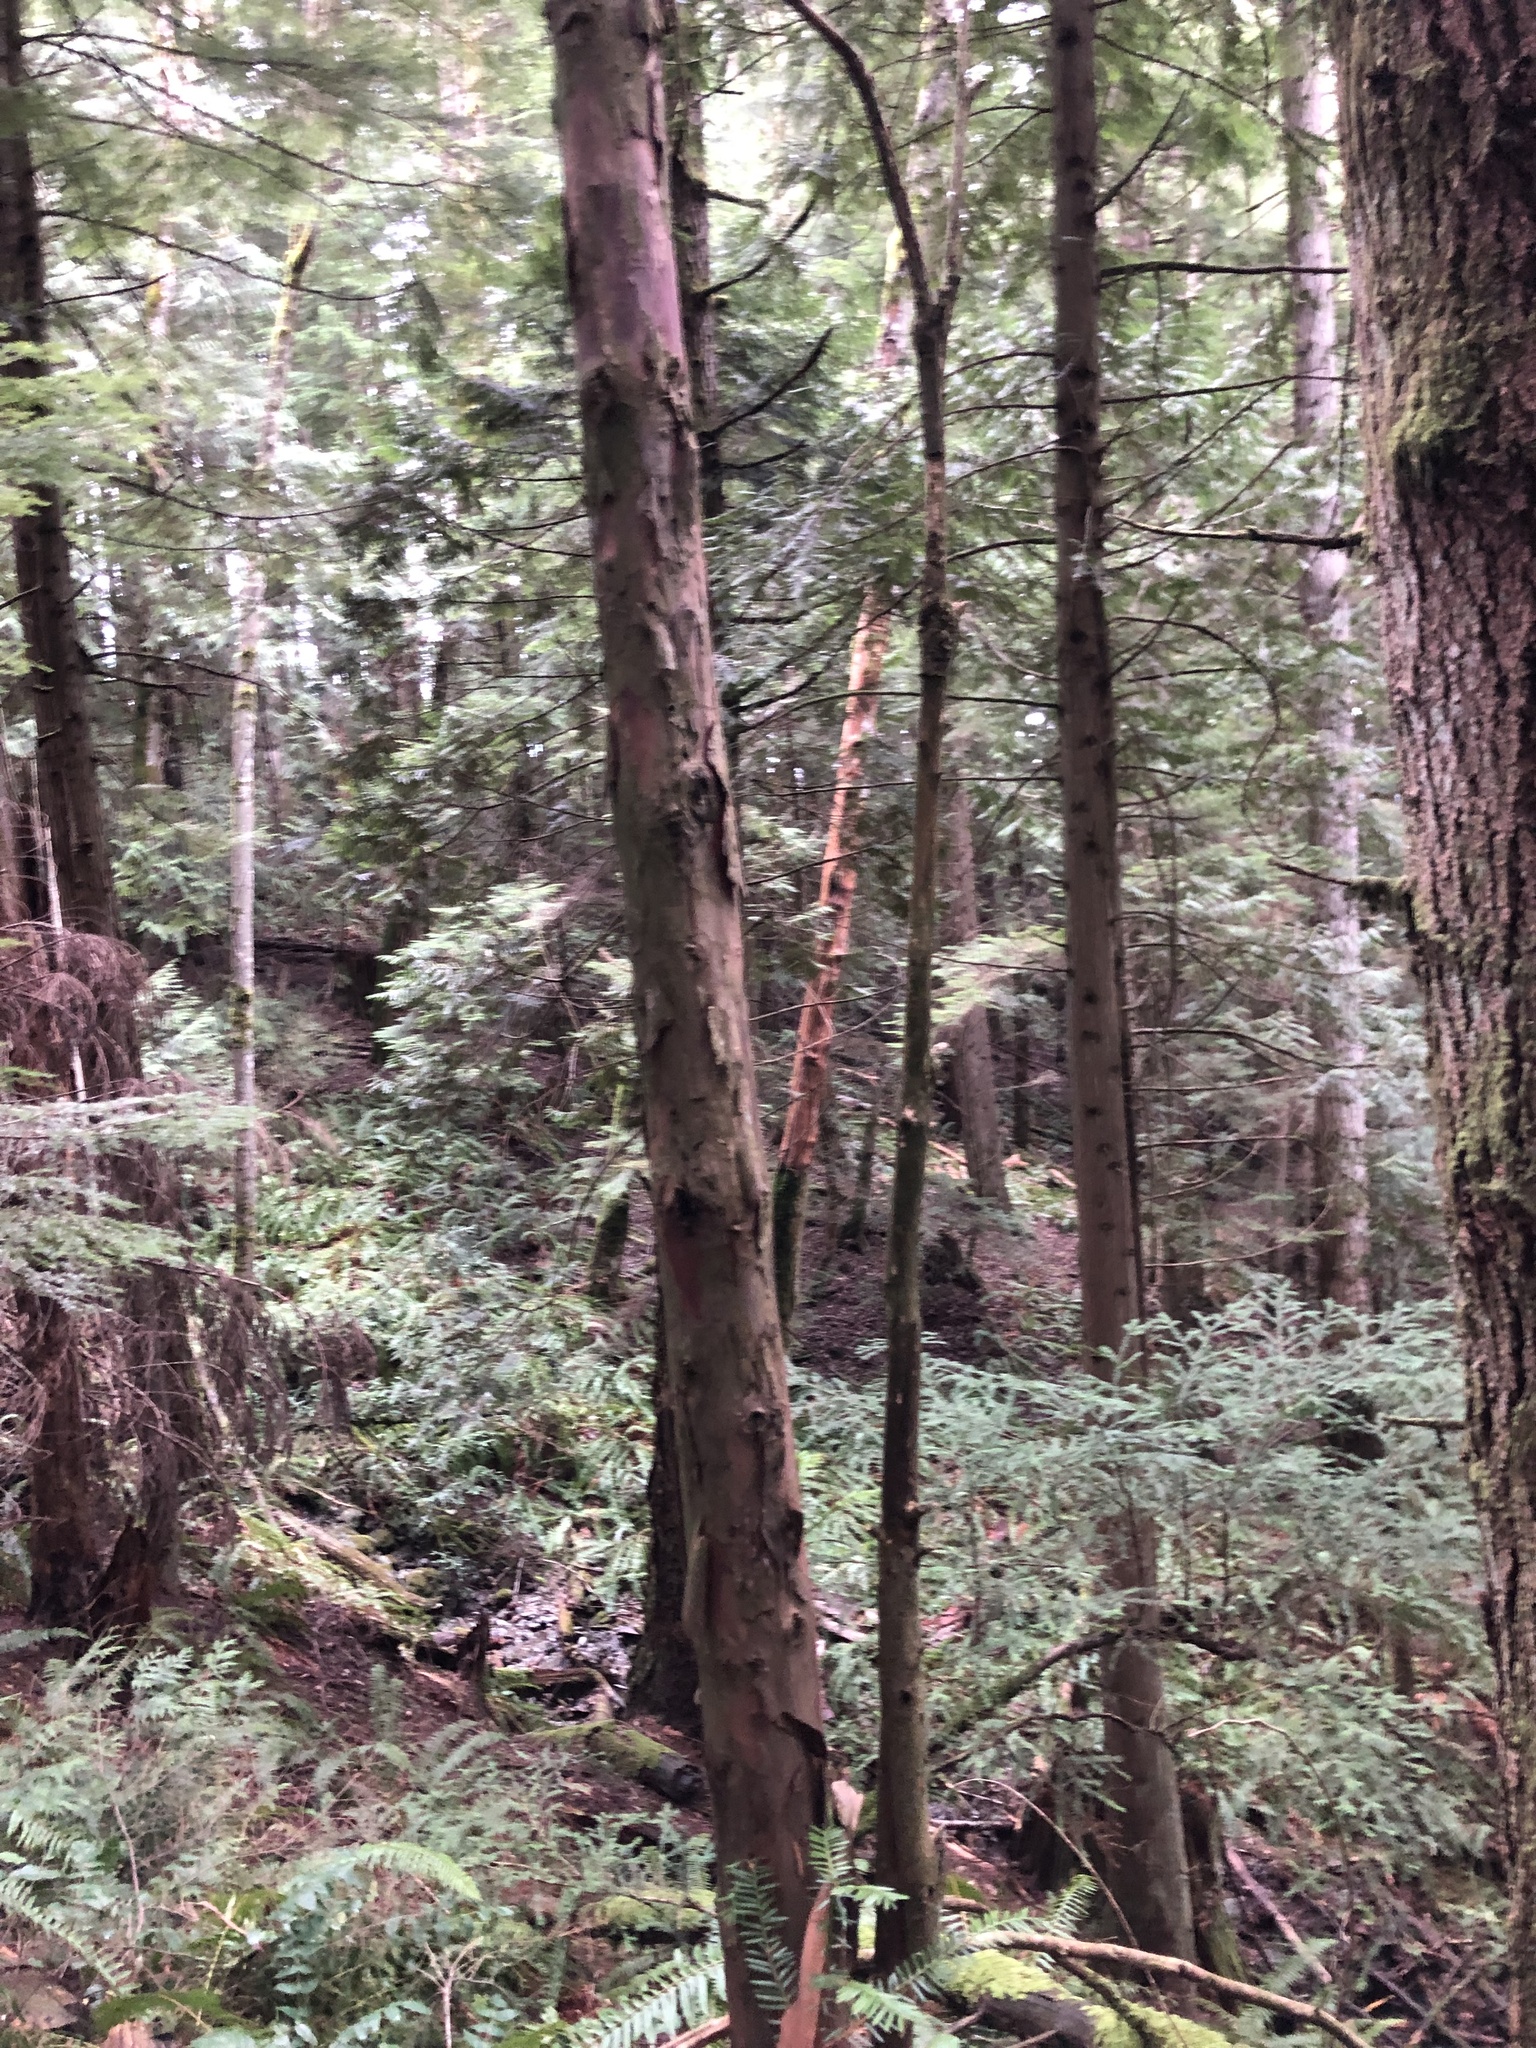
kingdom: Plantae
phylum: Tracheophyta
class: Pinopsida
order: Pinales
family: Taxaceae
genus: Taxus
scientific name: Taxus brevifolia
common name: Pacific yew
